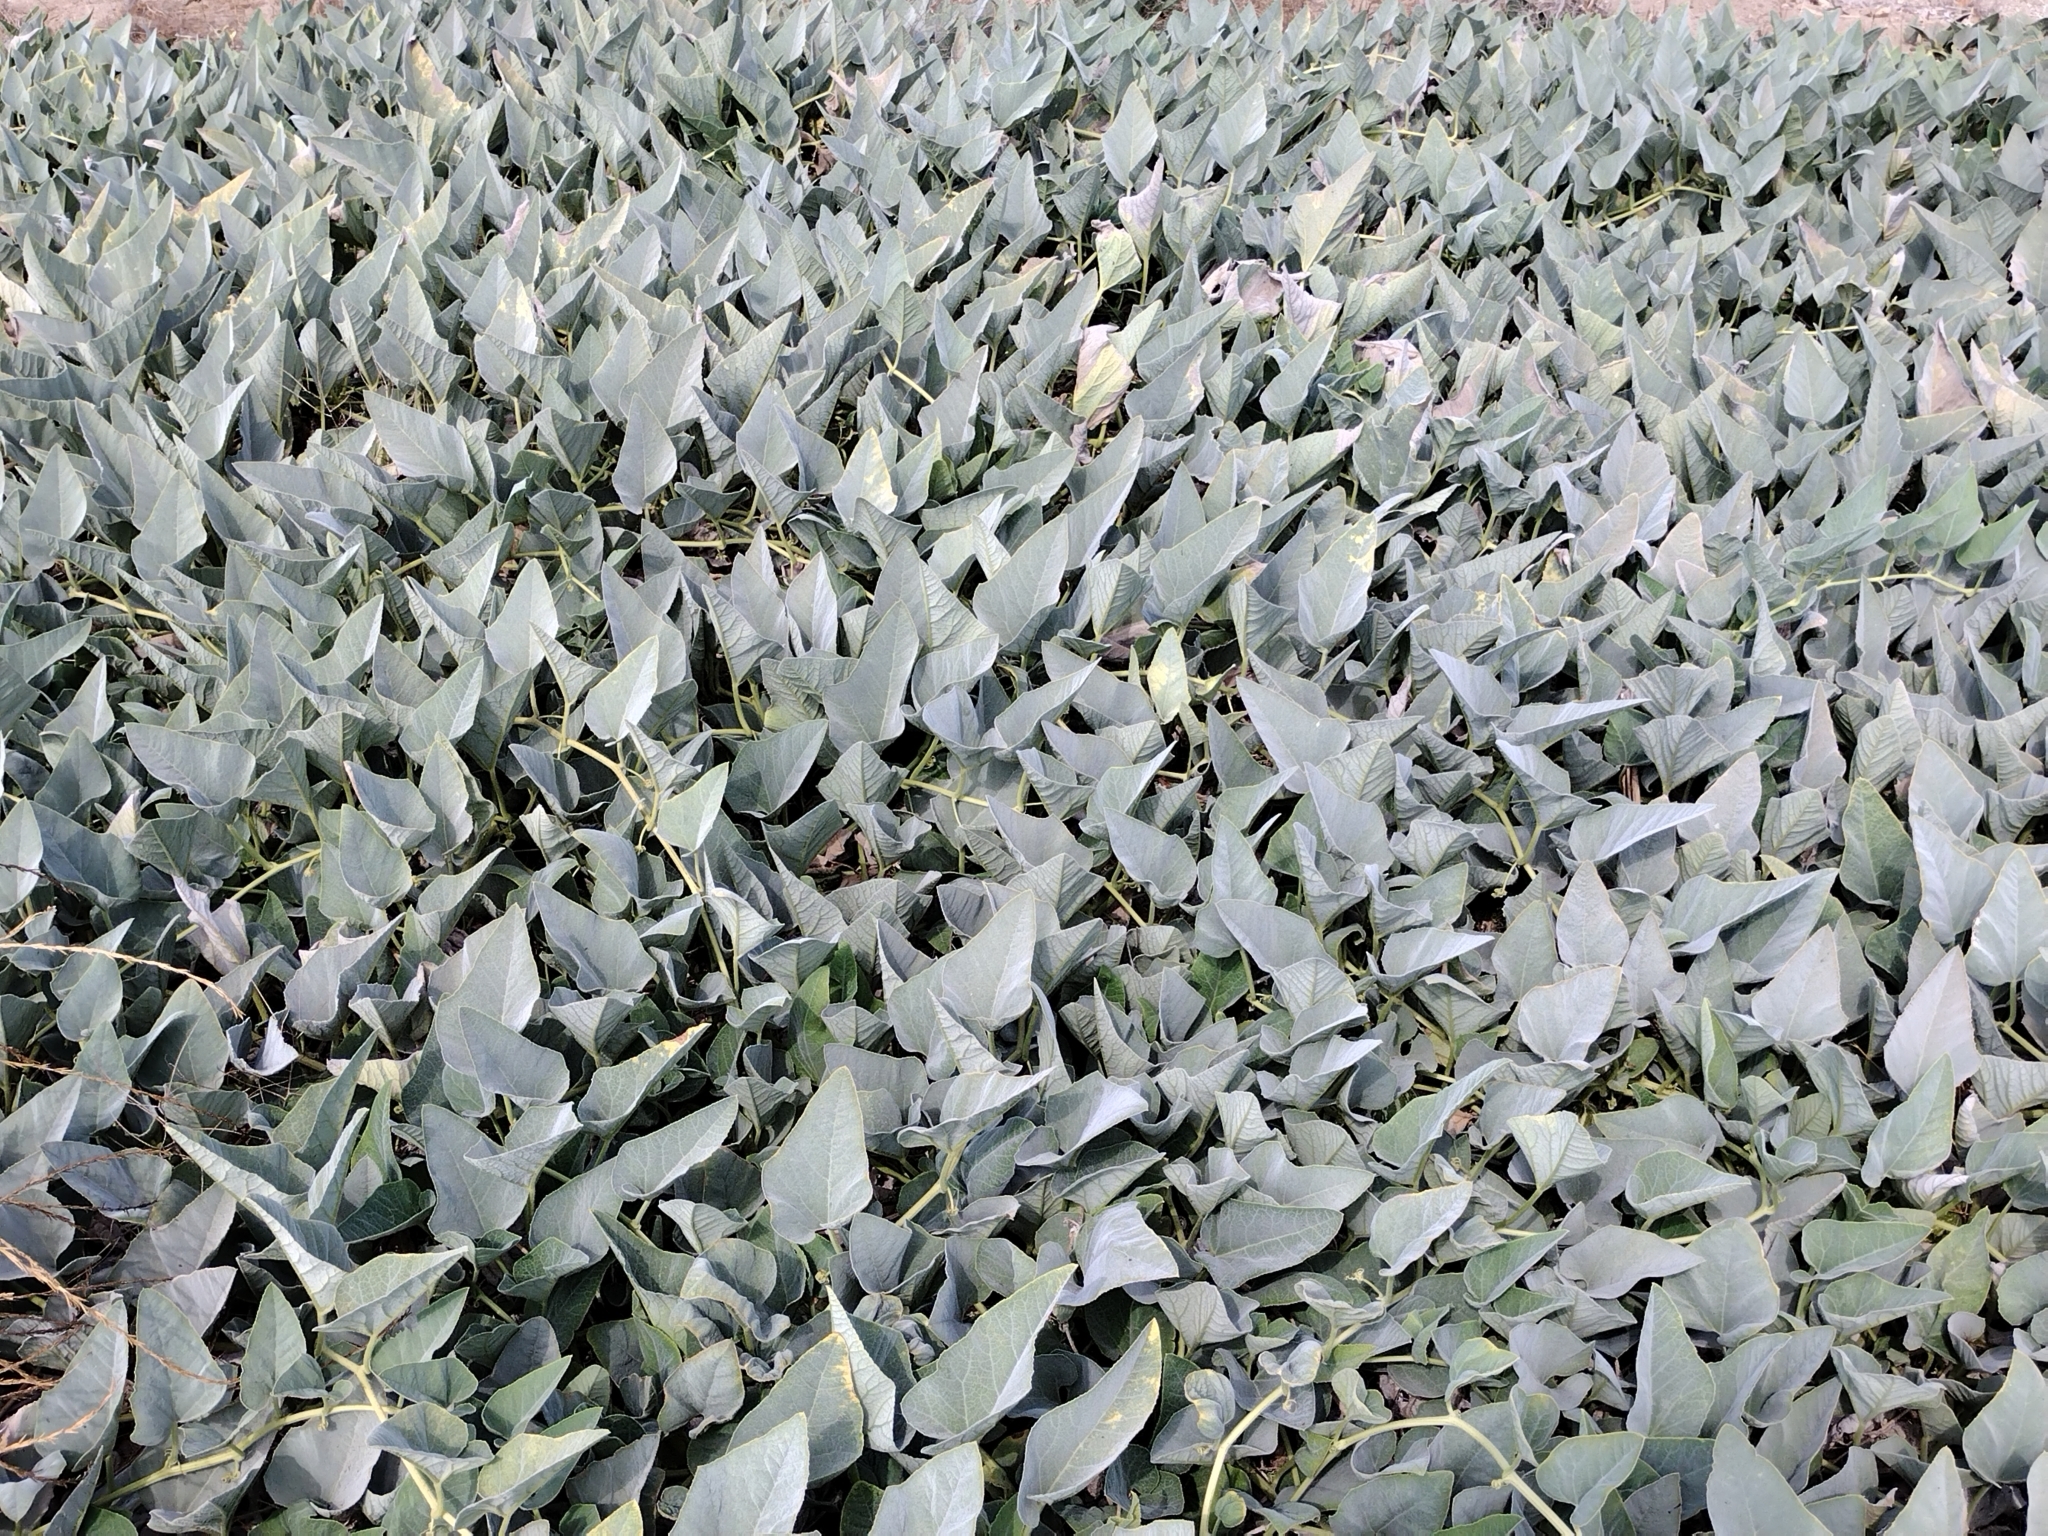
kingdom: Plantae
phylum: Tracheophyta
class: Magnoliopsida
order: Cucurbitales
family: Cucurbitaceae
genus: Cucurbita
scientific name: Cucurbita foetidissima
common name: Buffalo gourd
